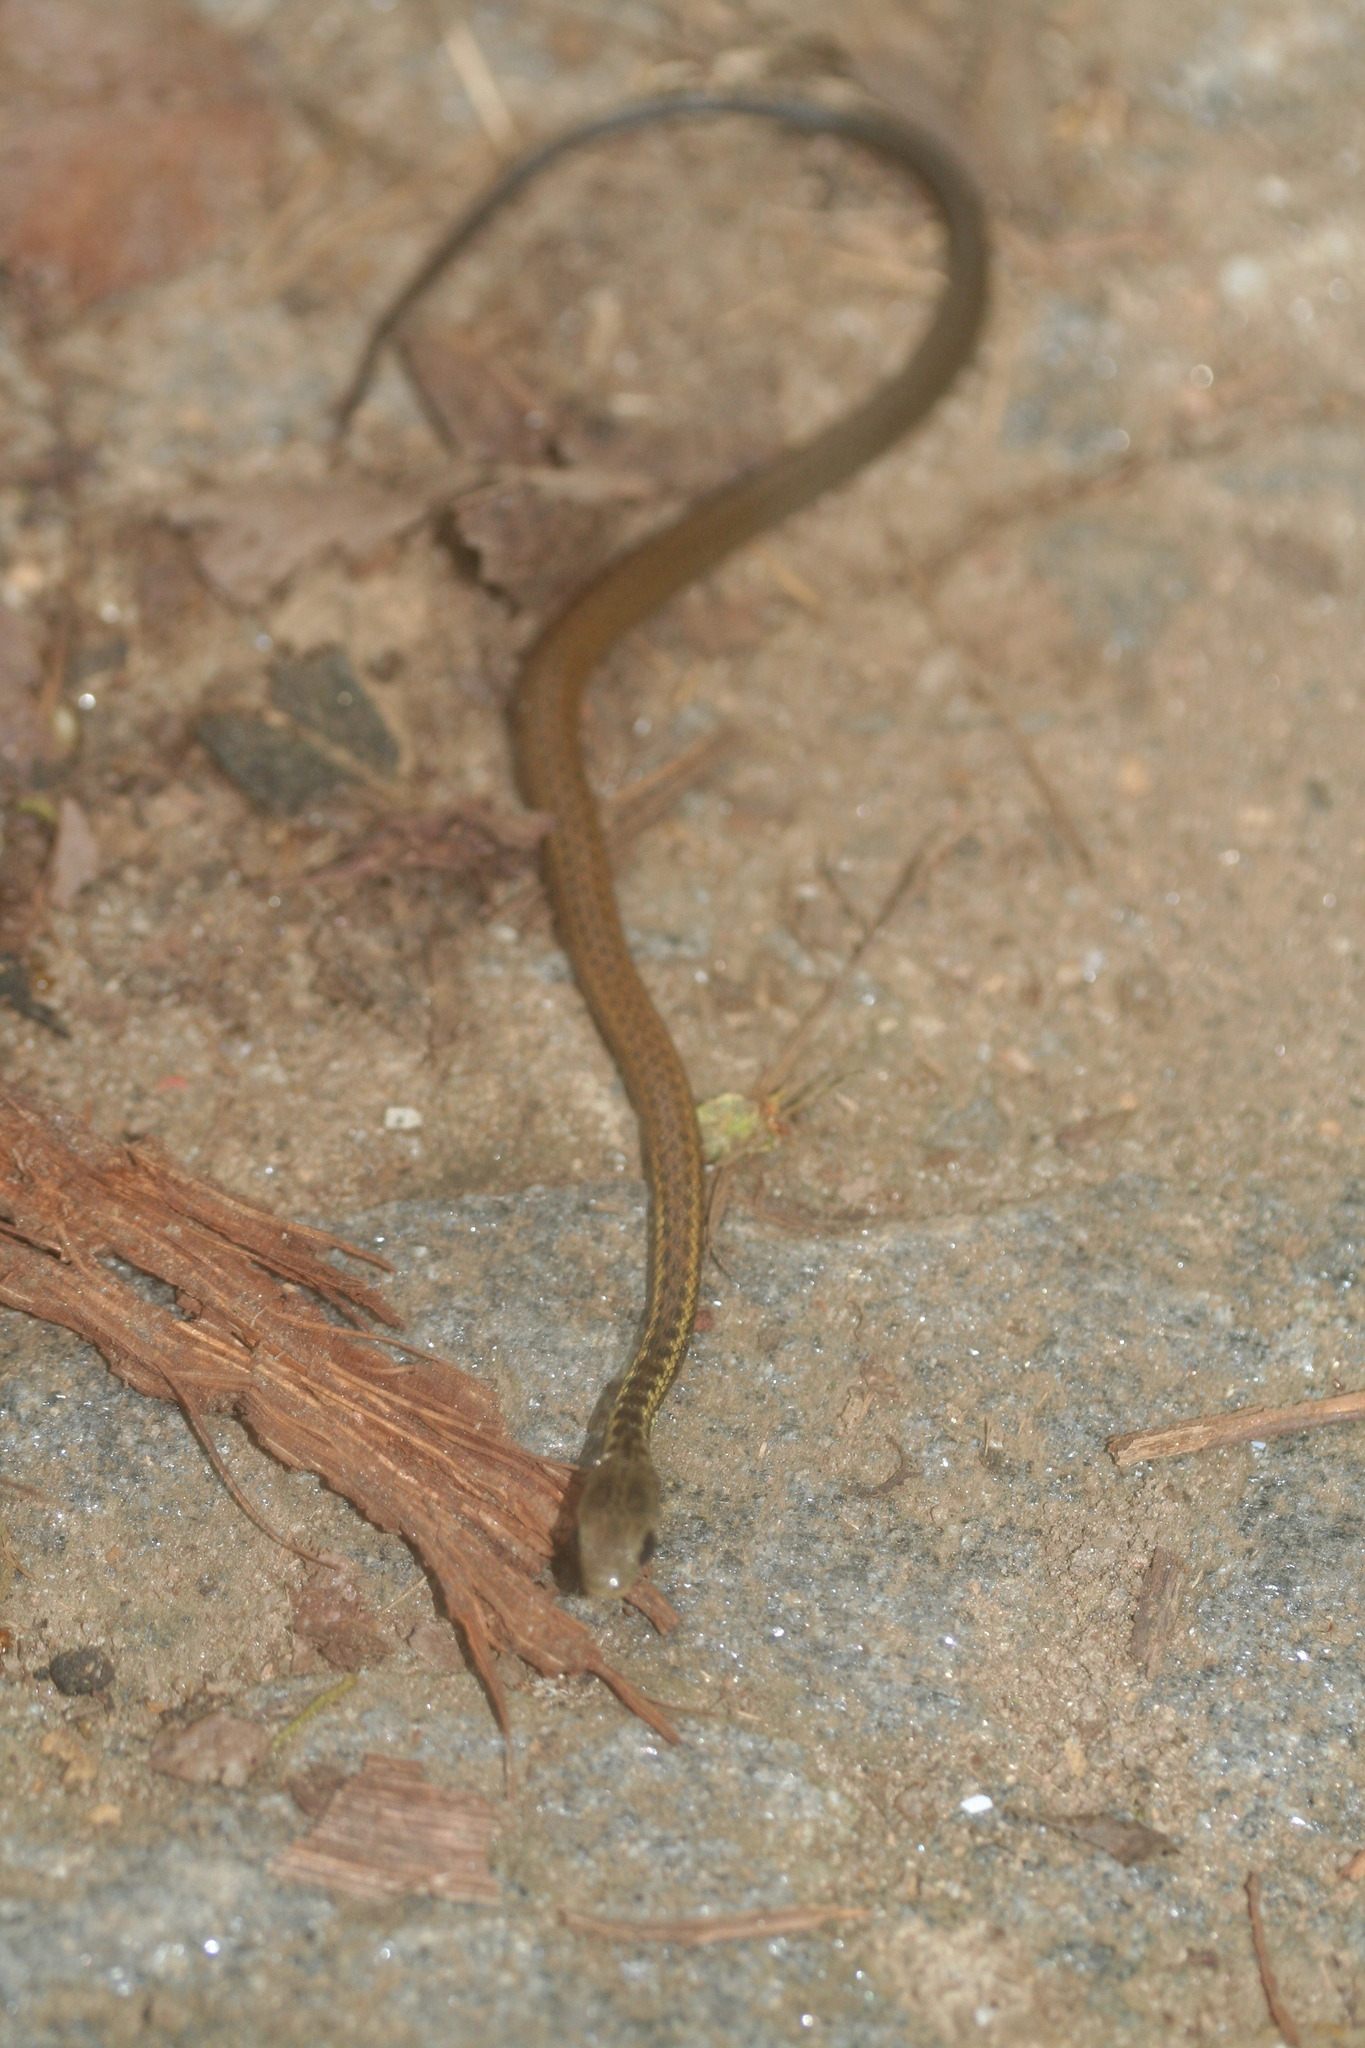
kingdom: Animalia
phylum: Chordata
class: Squamata
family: Pseudoxyrhophiidae
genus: Thamnosophis
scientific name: Thamnosophis epistibes
